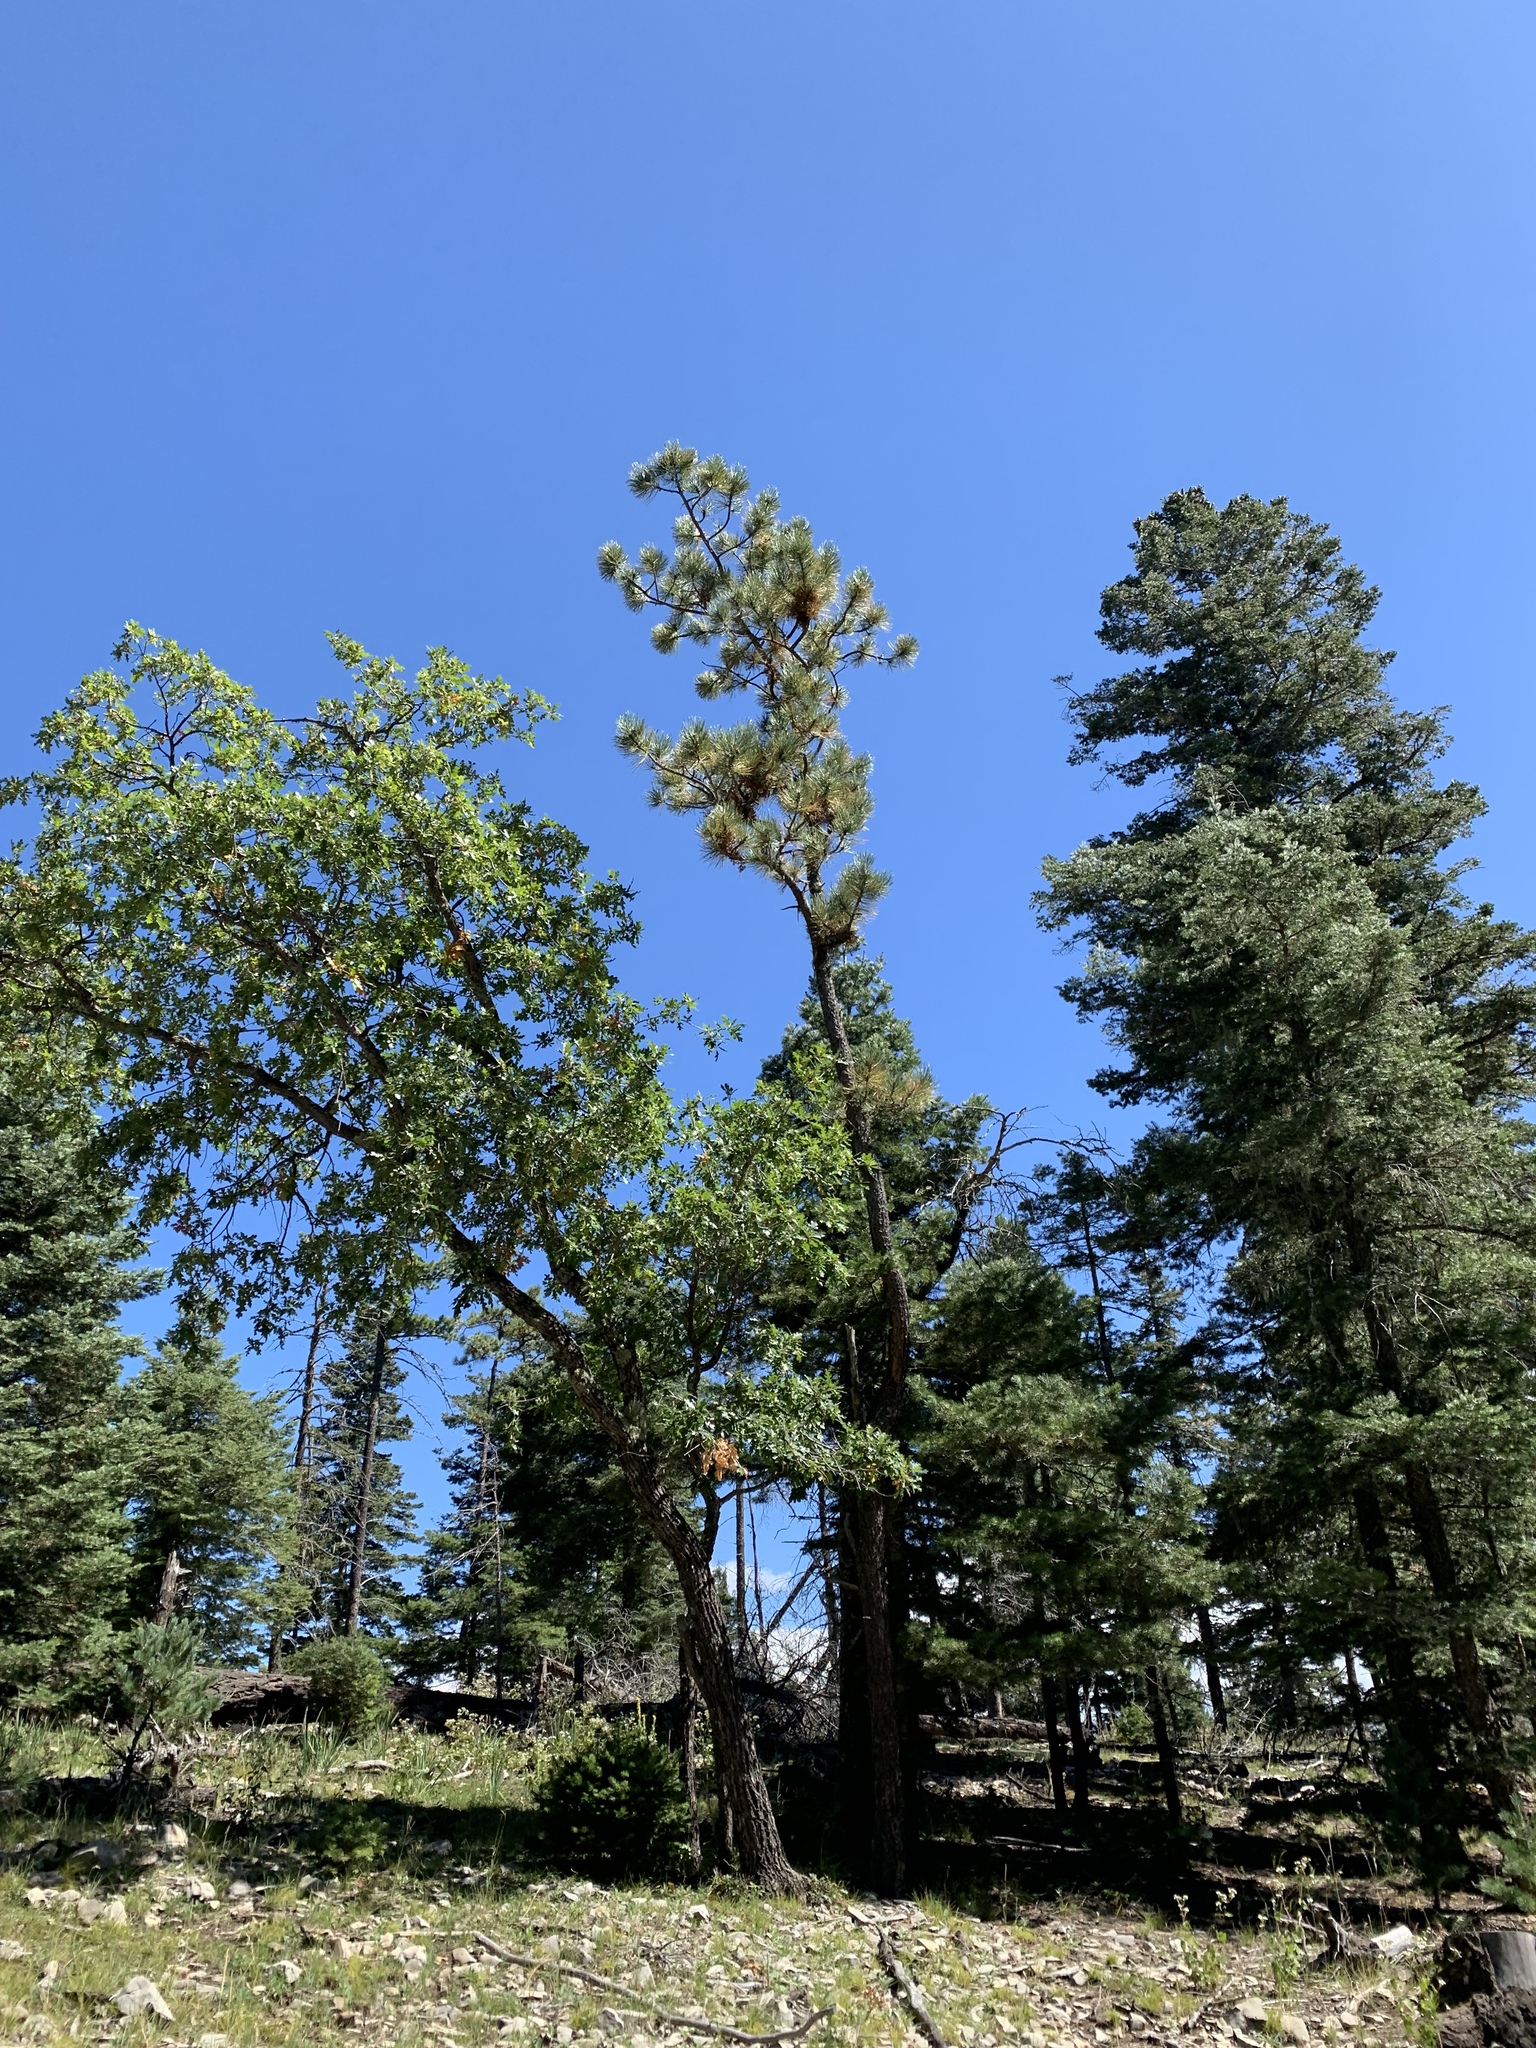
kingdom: Plantae
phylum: Tracheophyta
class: Pinopsida
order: Pinales
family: Pinaceae
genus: Pinus
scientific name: Pinus ponderosa
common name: Western yellow-pine
